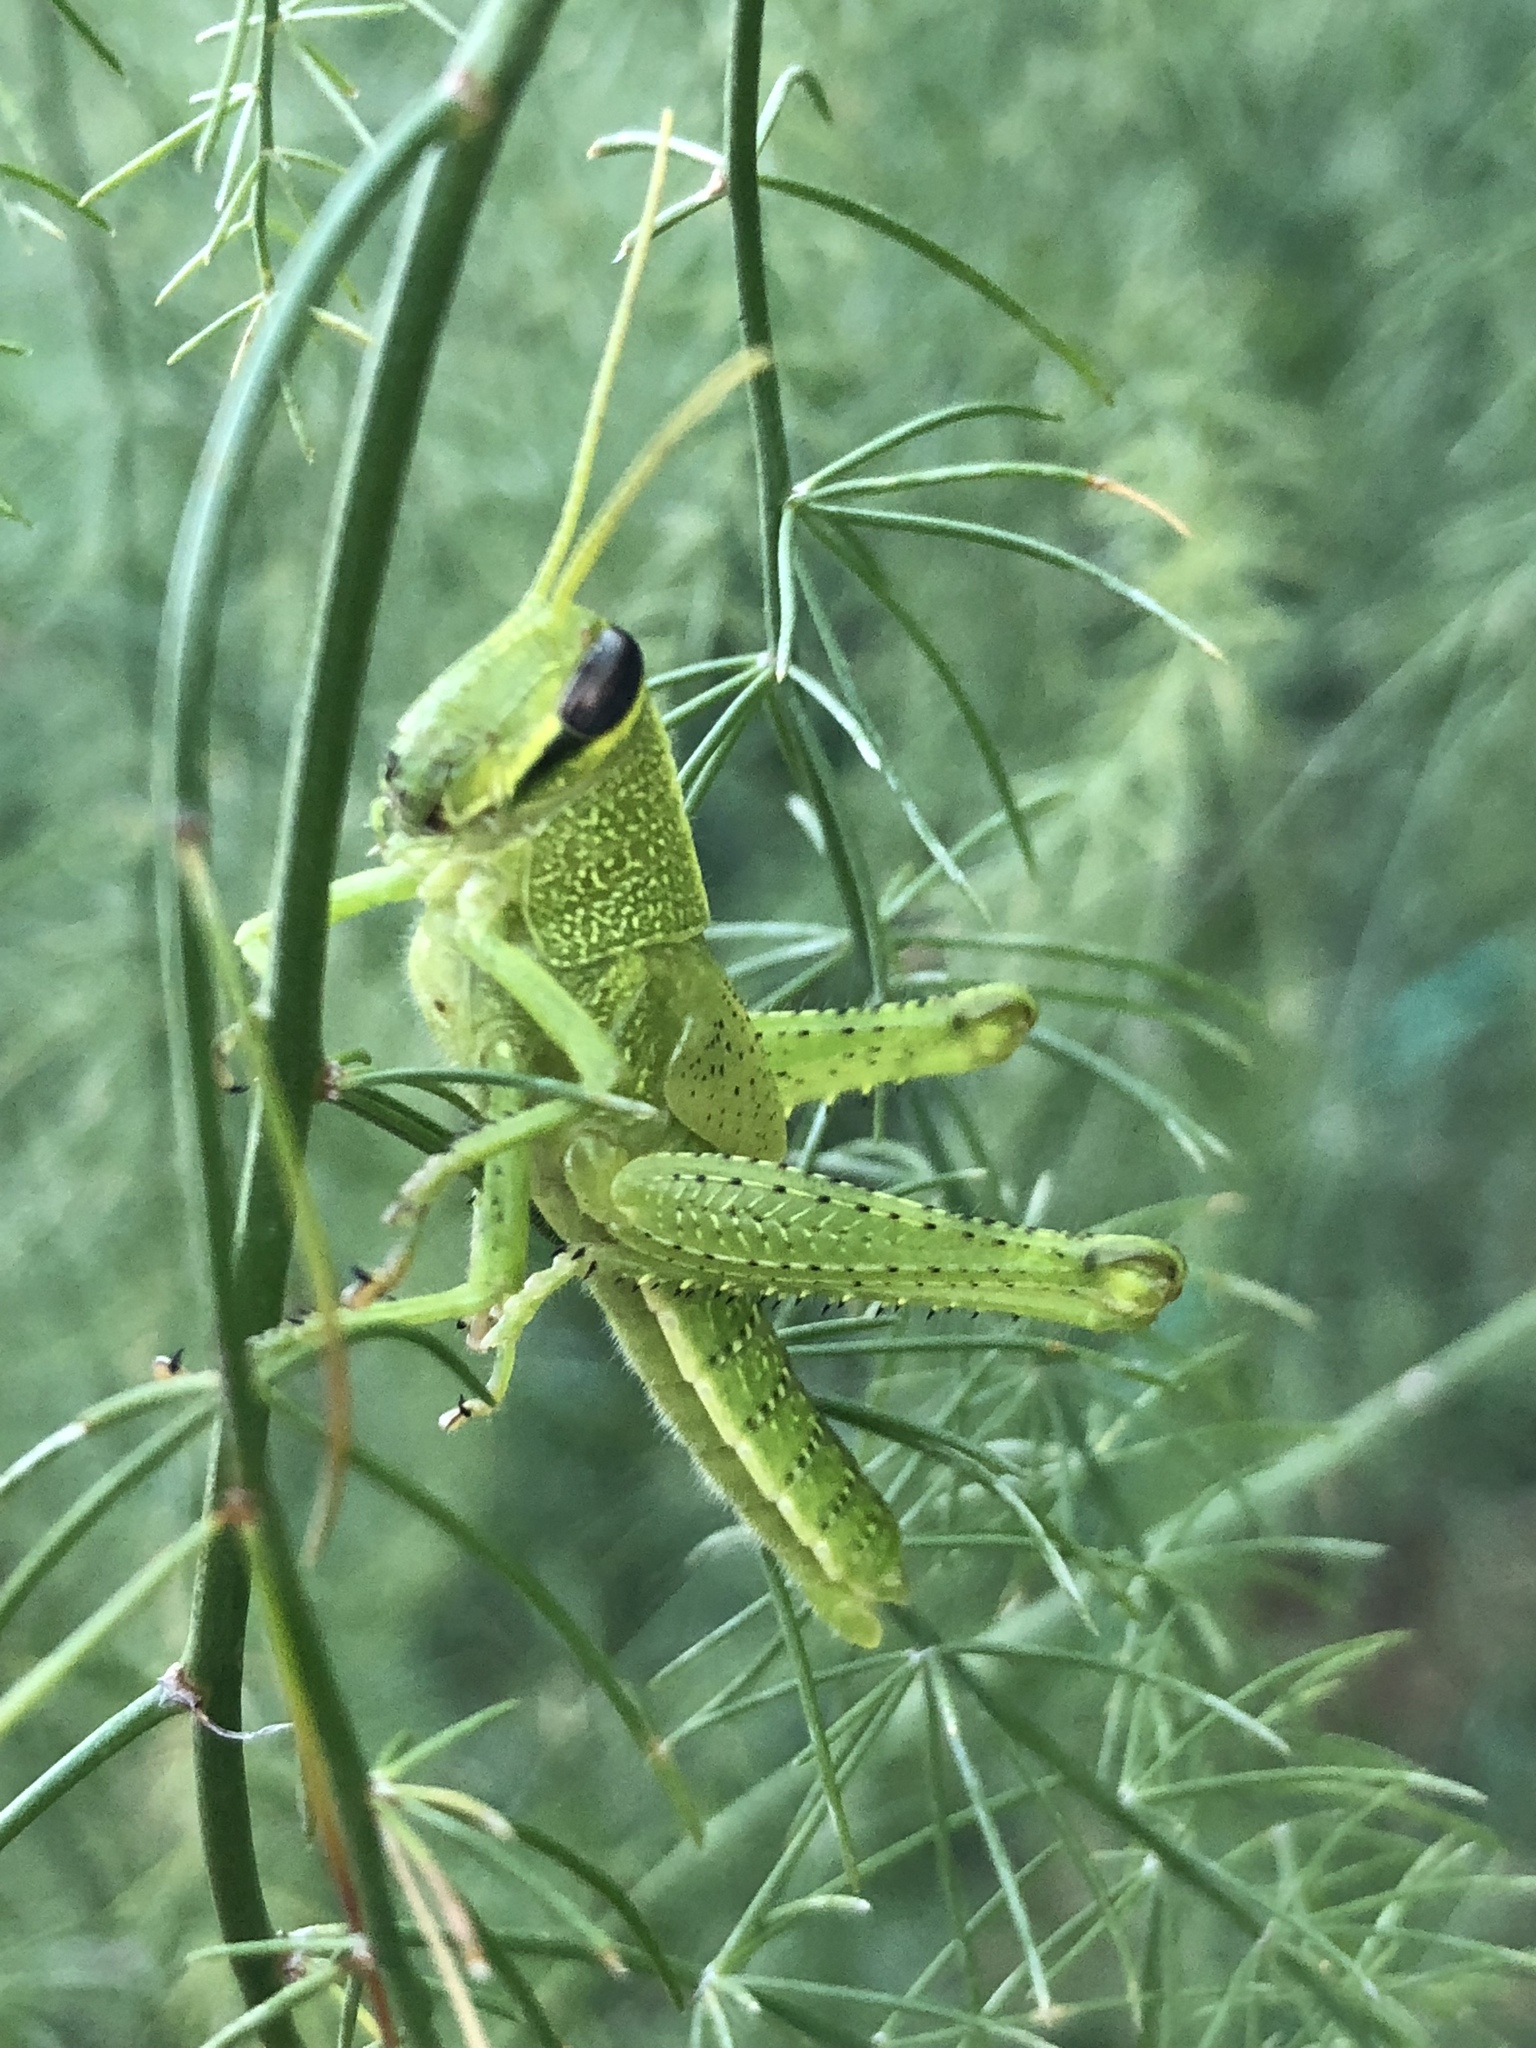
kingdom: Animalia
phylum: Arthropoda
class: Insecta
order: Orthoptera
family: Acrididae
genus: Schistocerca
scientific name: Schistocerca obscura
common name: Obscure bird grasshopper
